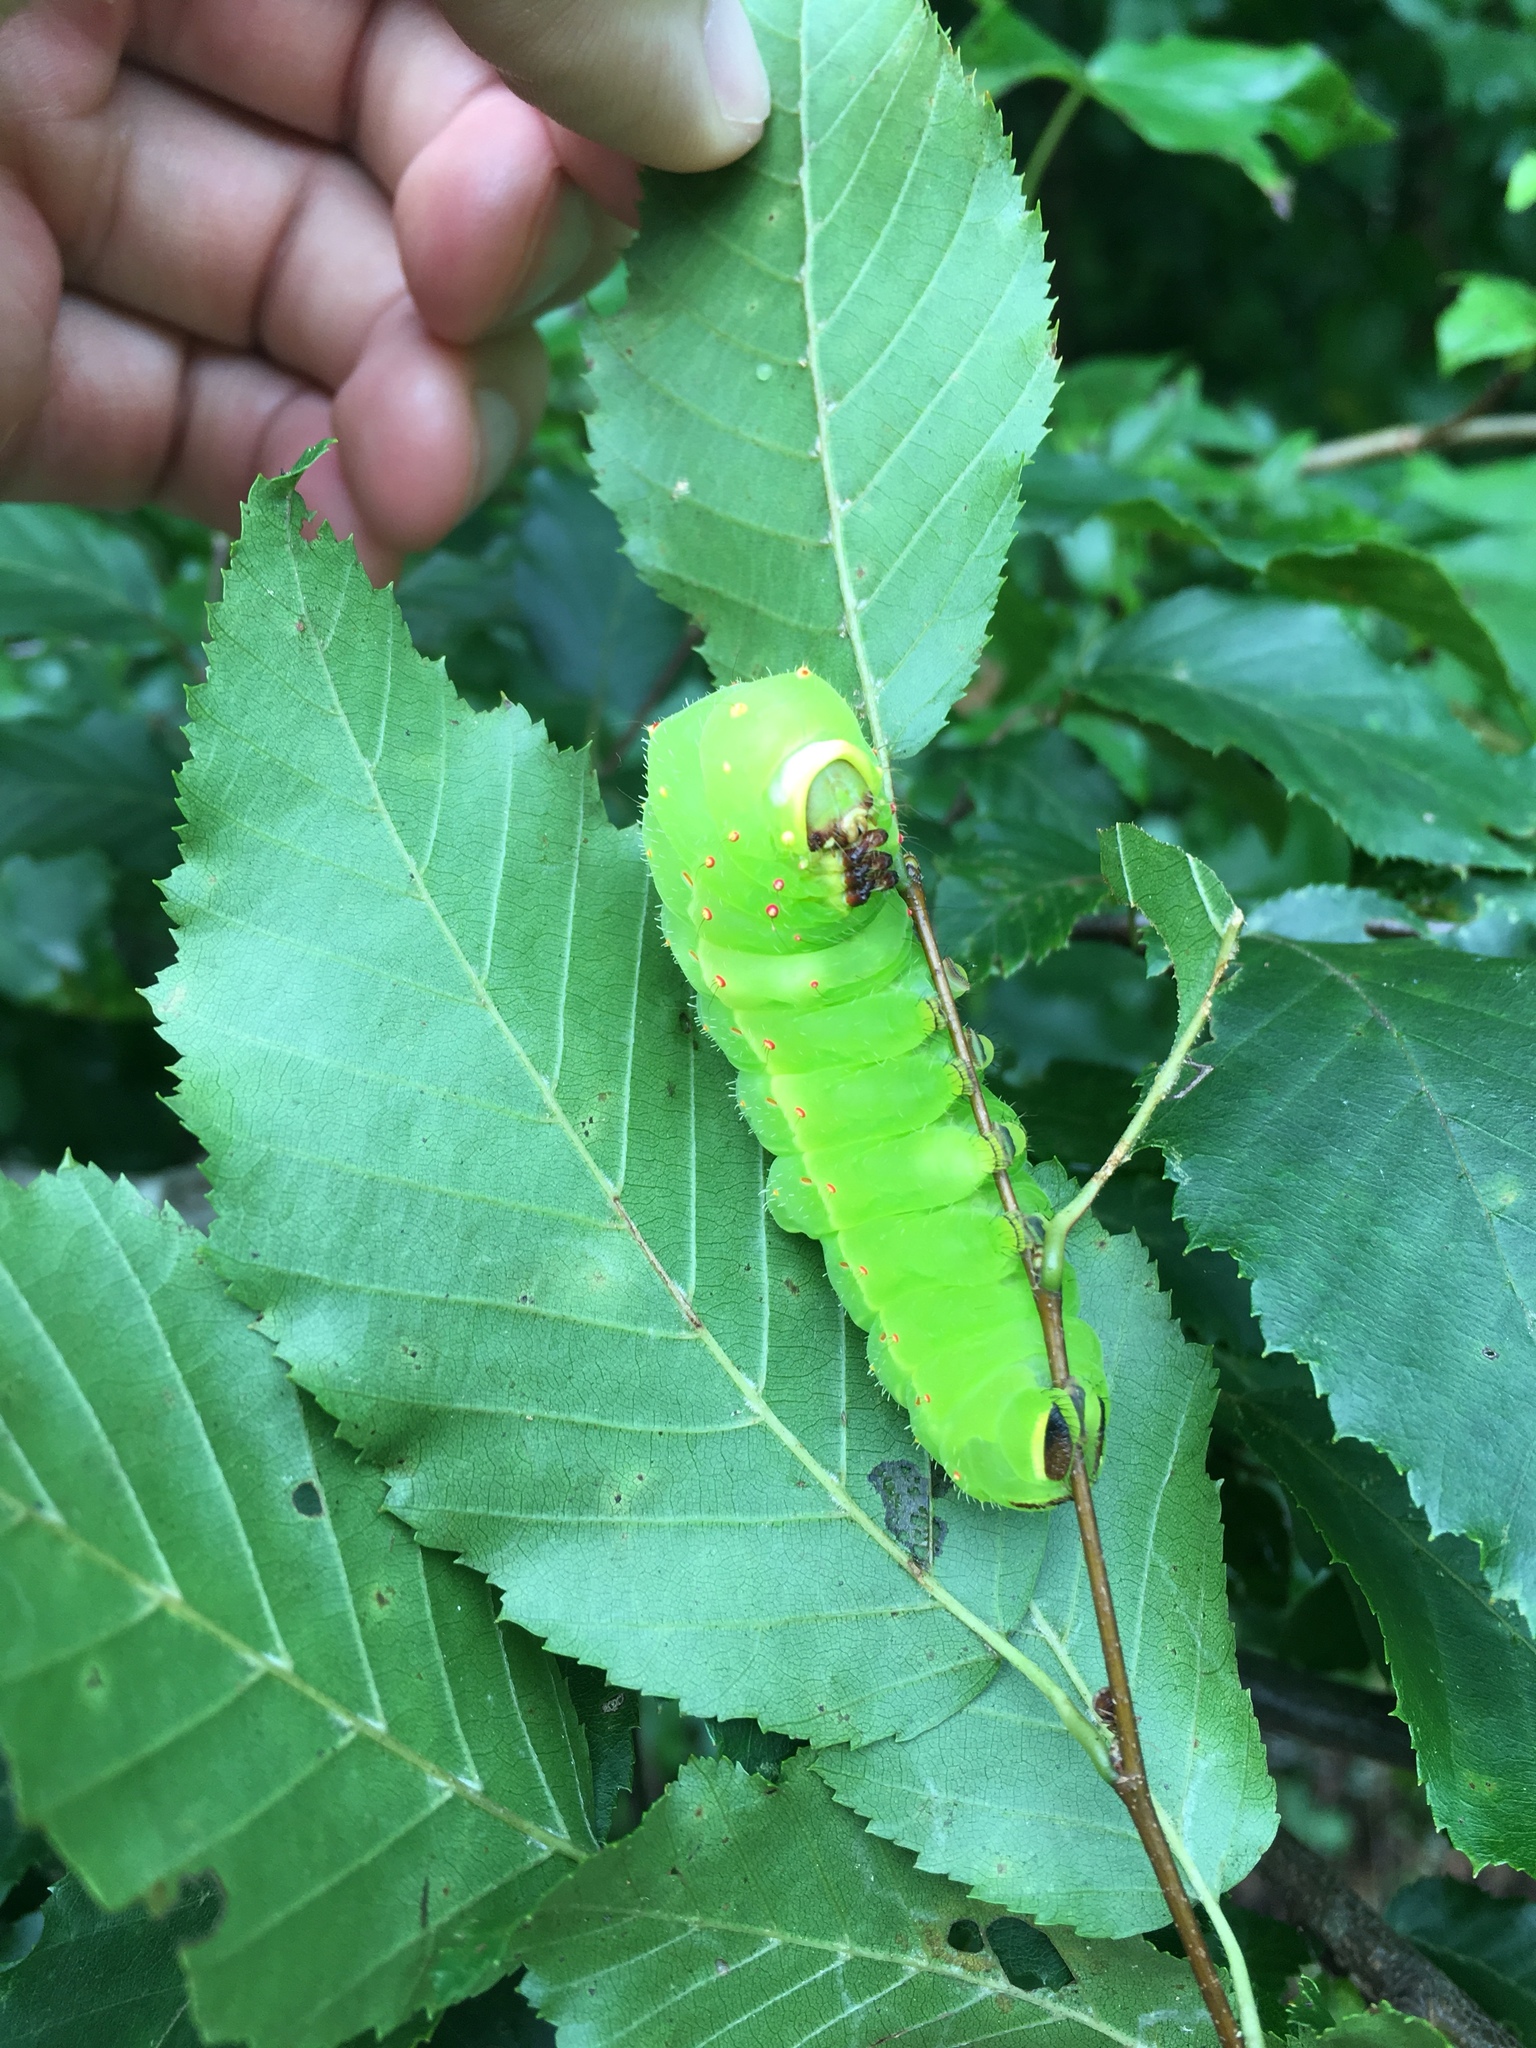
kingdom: Animalia
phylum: Arthropoda
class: Insecta
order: Lepidoptera
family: Saturniidae
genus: Actias
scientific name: Actias luna
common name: Luna moth
